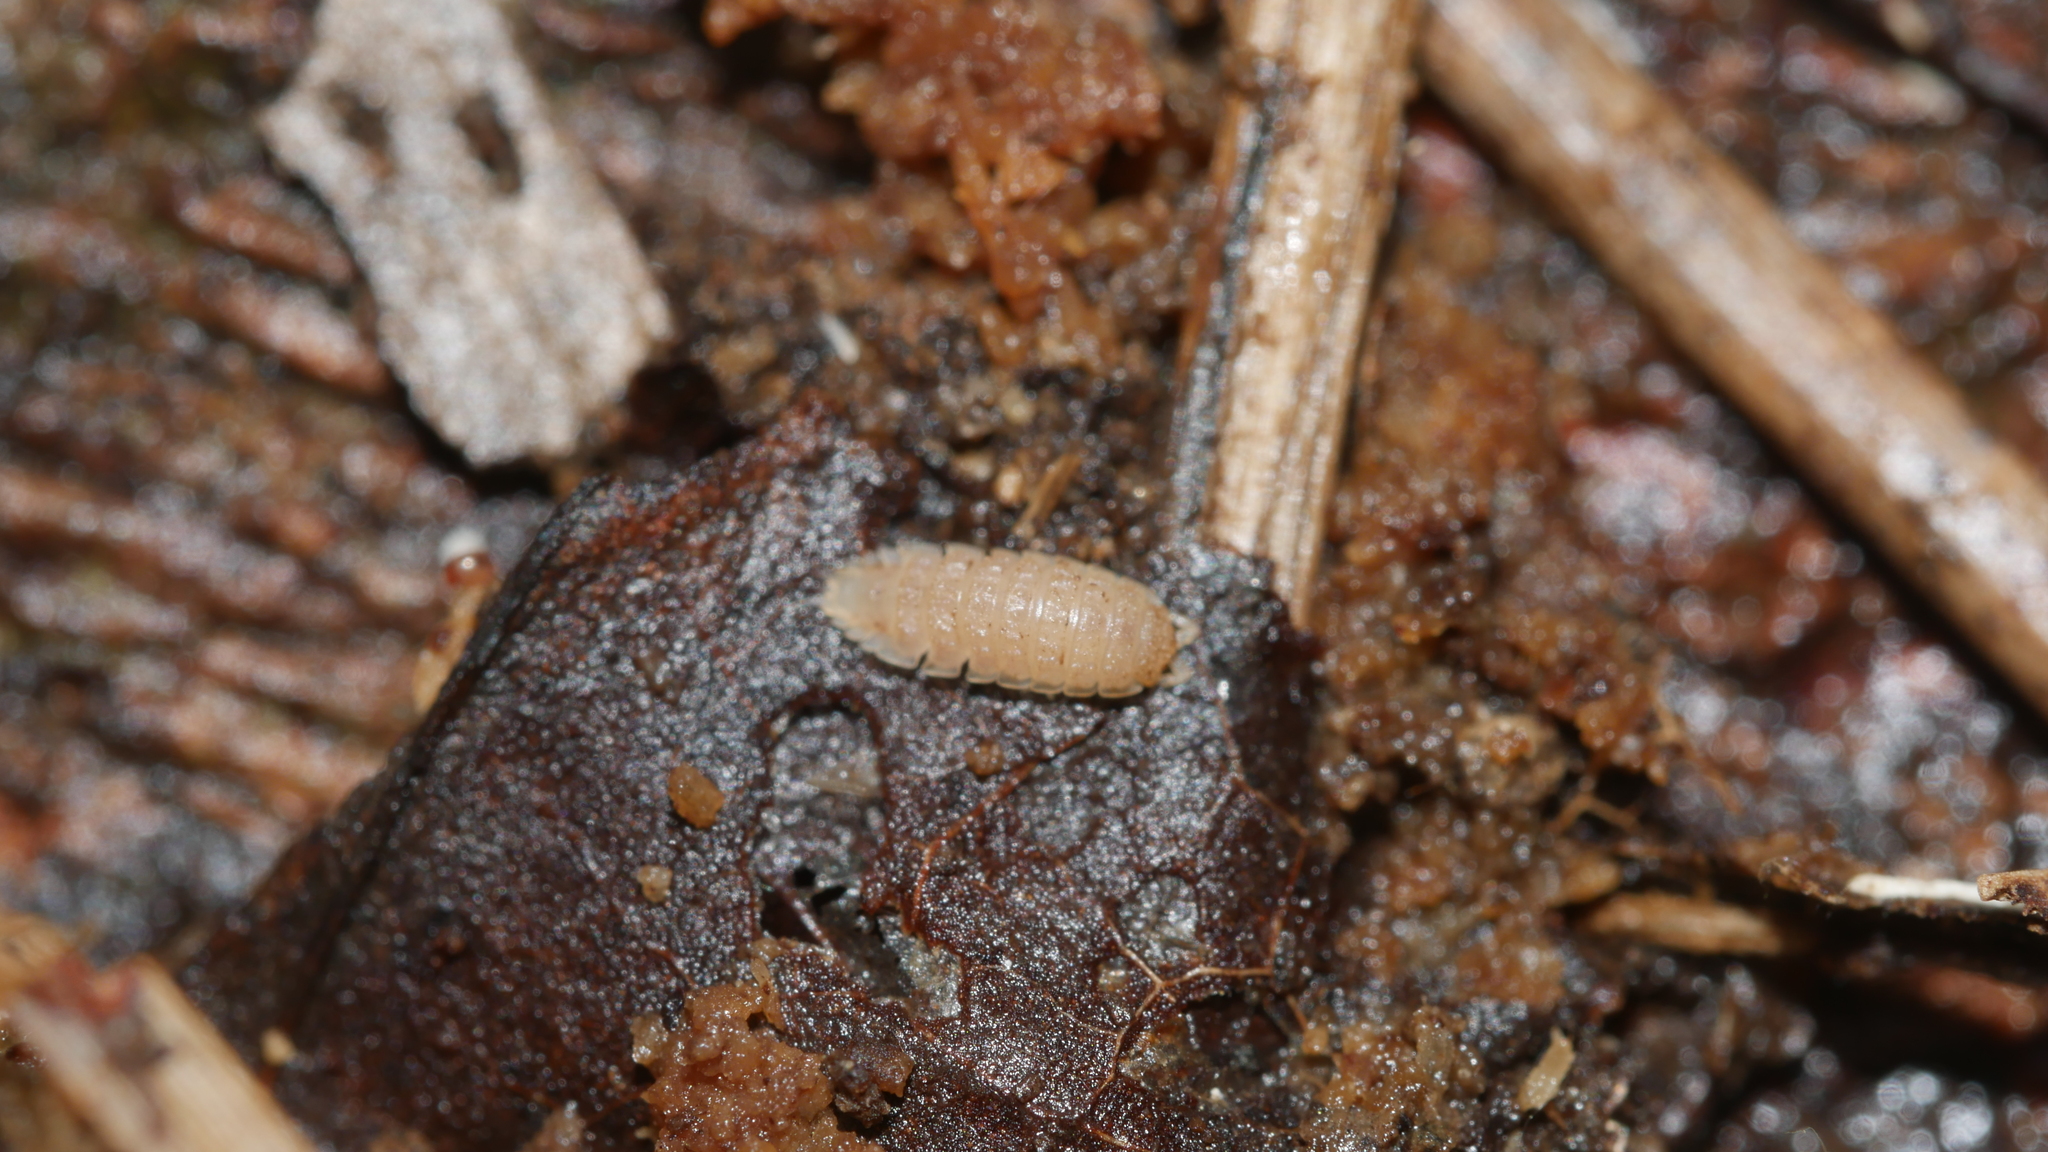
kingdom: Animalia
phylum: Arthropoda
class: Malacostraca
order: Isopoda
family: Trichoniscidae
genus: Haplophthalmus
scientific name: Haplophthalmus danicus
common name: Pillbug
